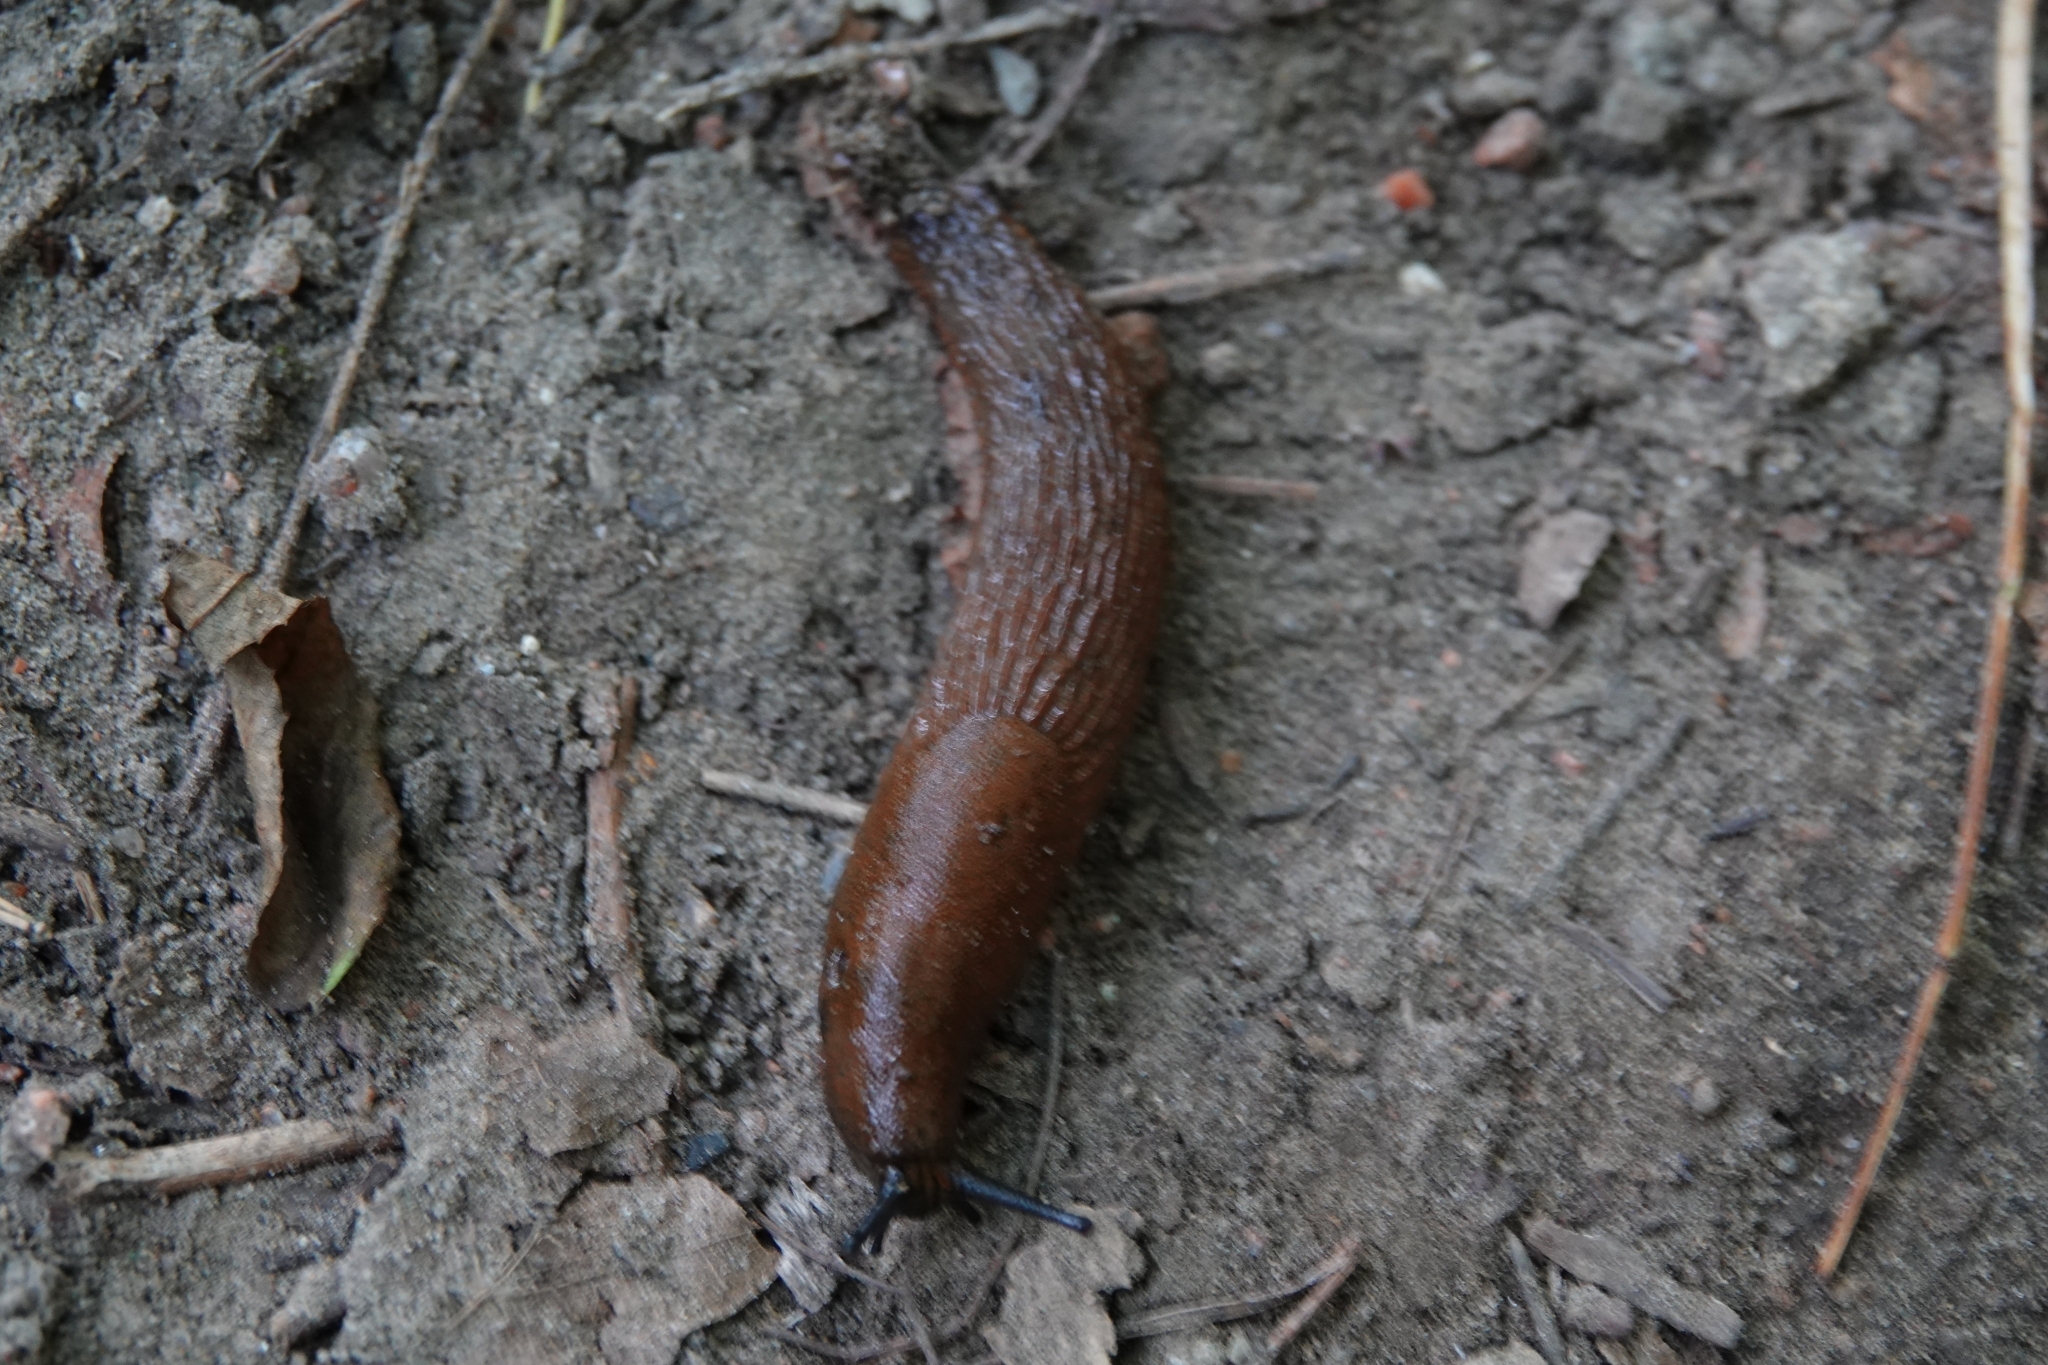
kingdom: Animalia
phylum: Mollusca
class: Gastropoda
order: Stylommatophora
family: Arionidae
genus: Arion
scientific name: Arion vulgaris
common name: Lusitanian slug
